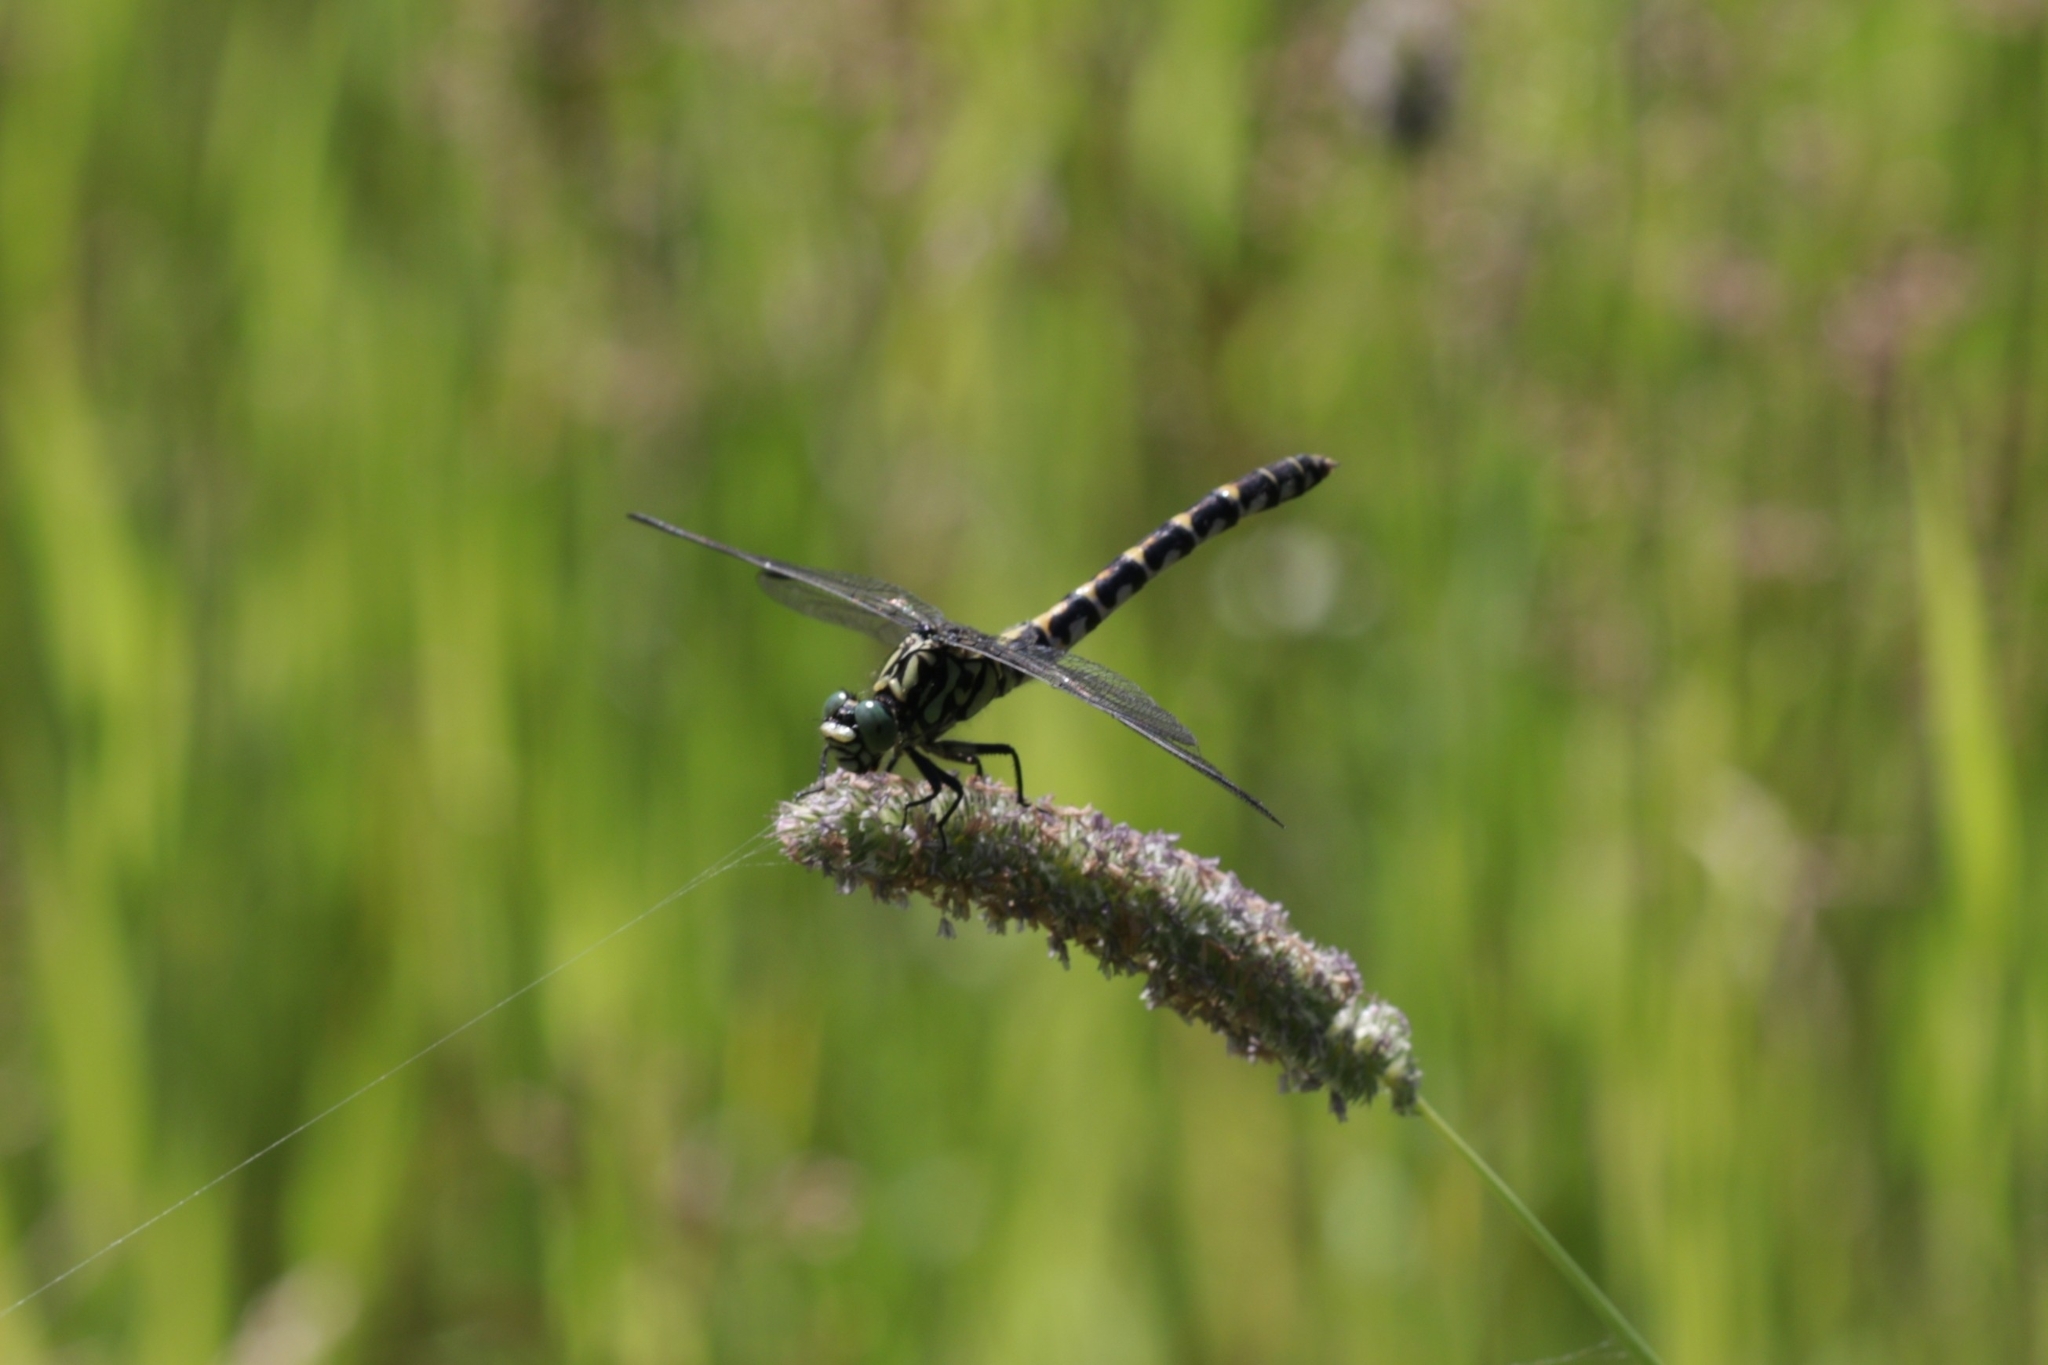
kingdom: Animalia
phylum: Arthropoda
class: Insecta
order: Odonata
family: Gomphidae
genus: Onychogomphus
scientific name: Onychogomphus forcipatus
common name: Small pincertail
